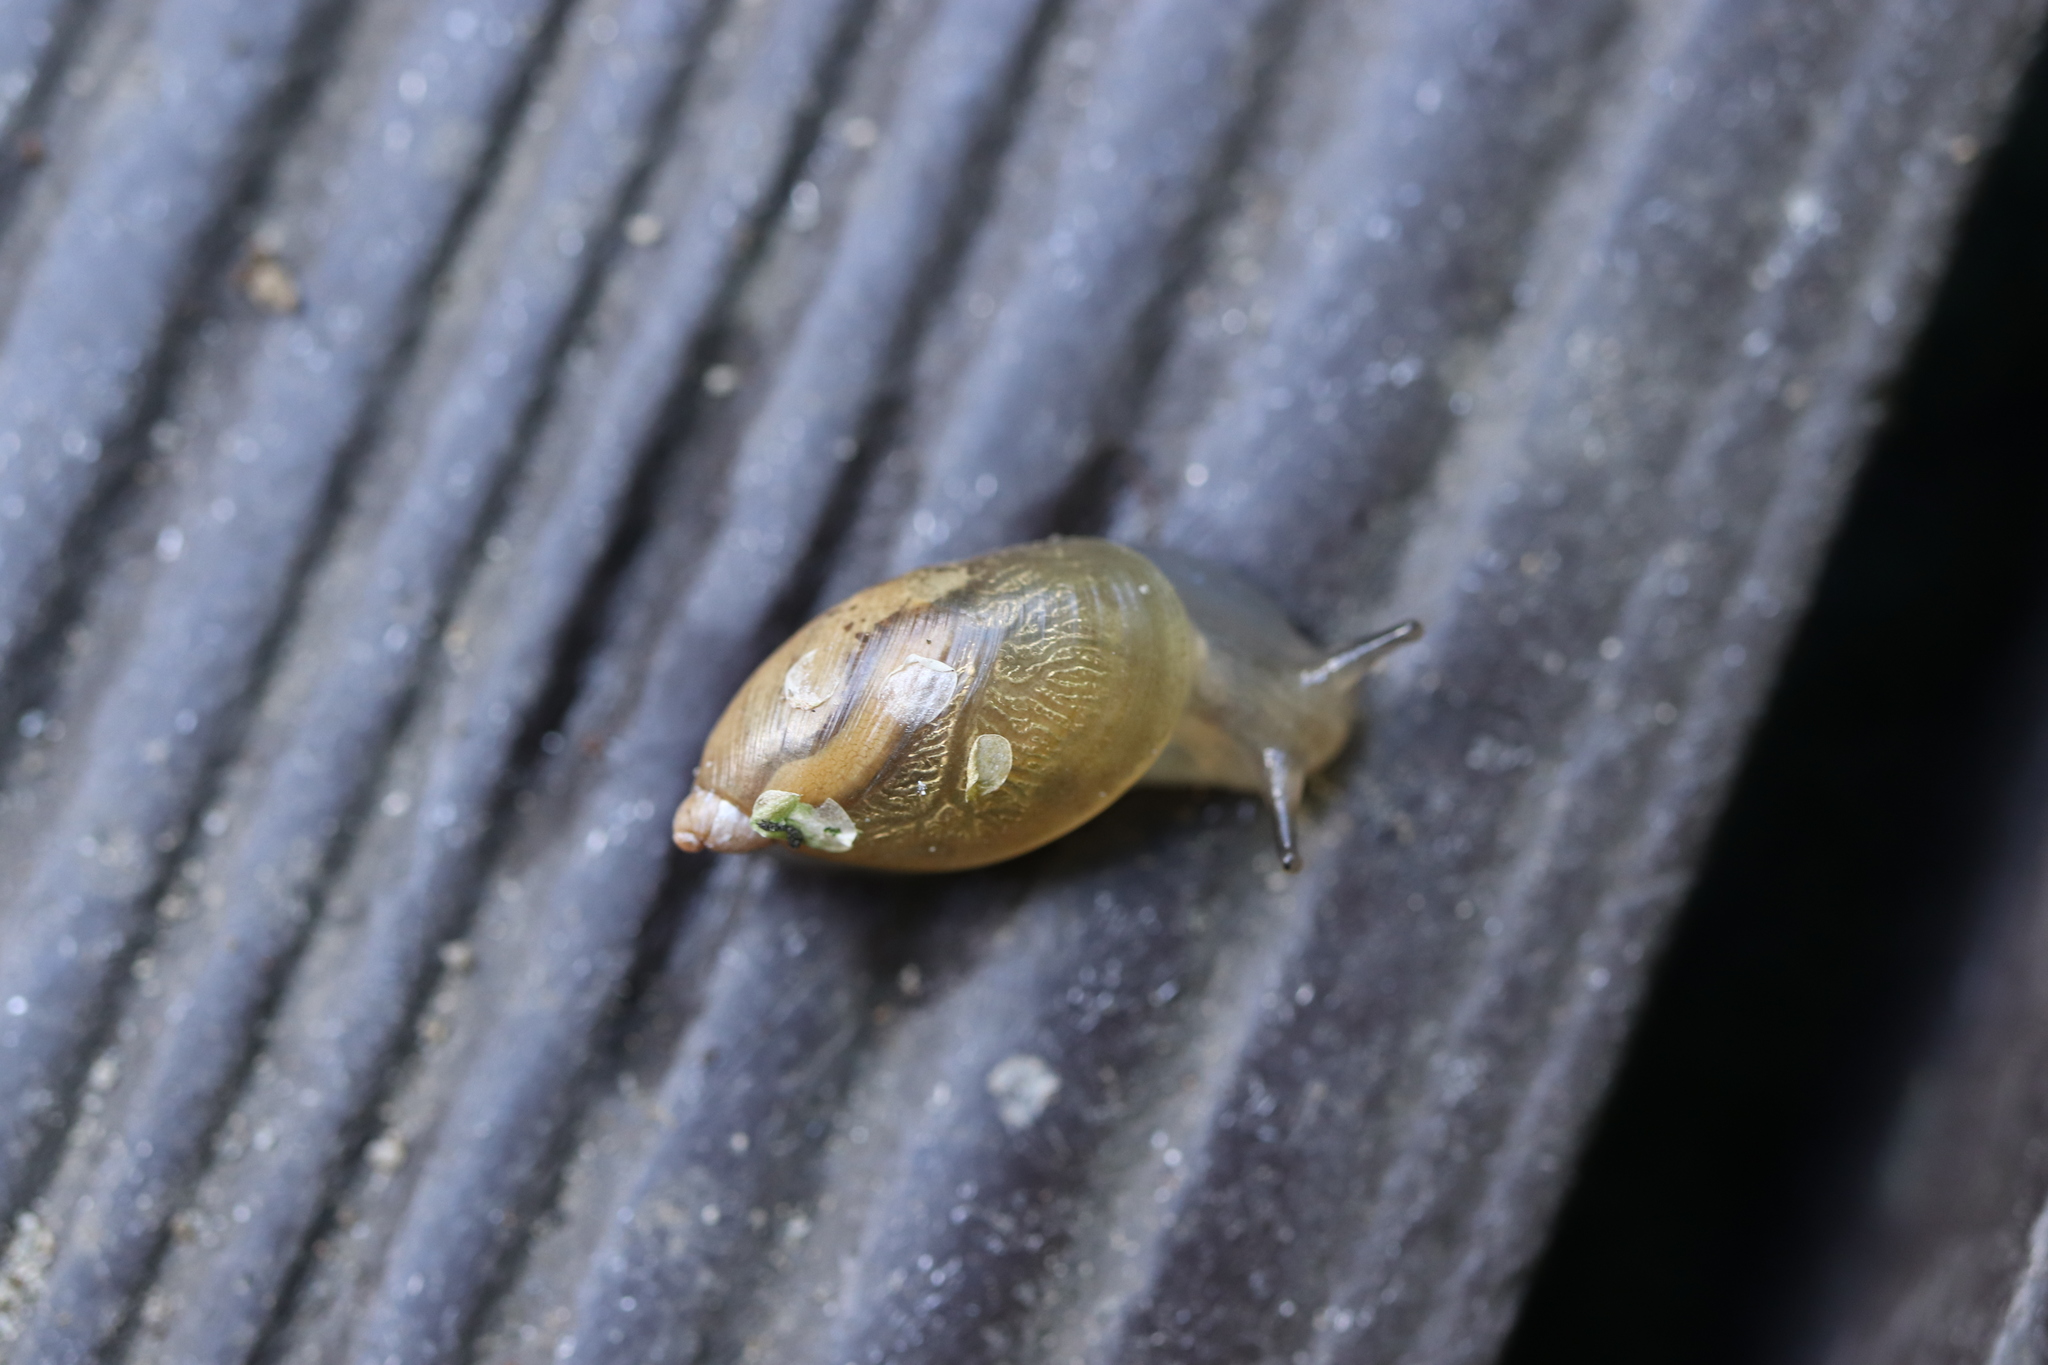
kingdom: Animalia
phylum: Mollusca
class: Gastropoda
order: Stylommatophora
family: Succineidae
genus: Oxyloma
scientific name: Oxyloma hirasei
